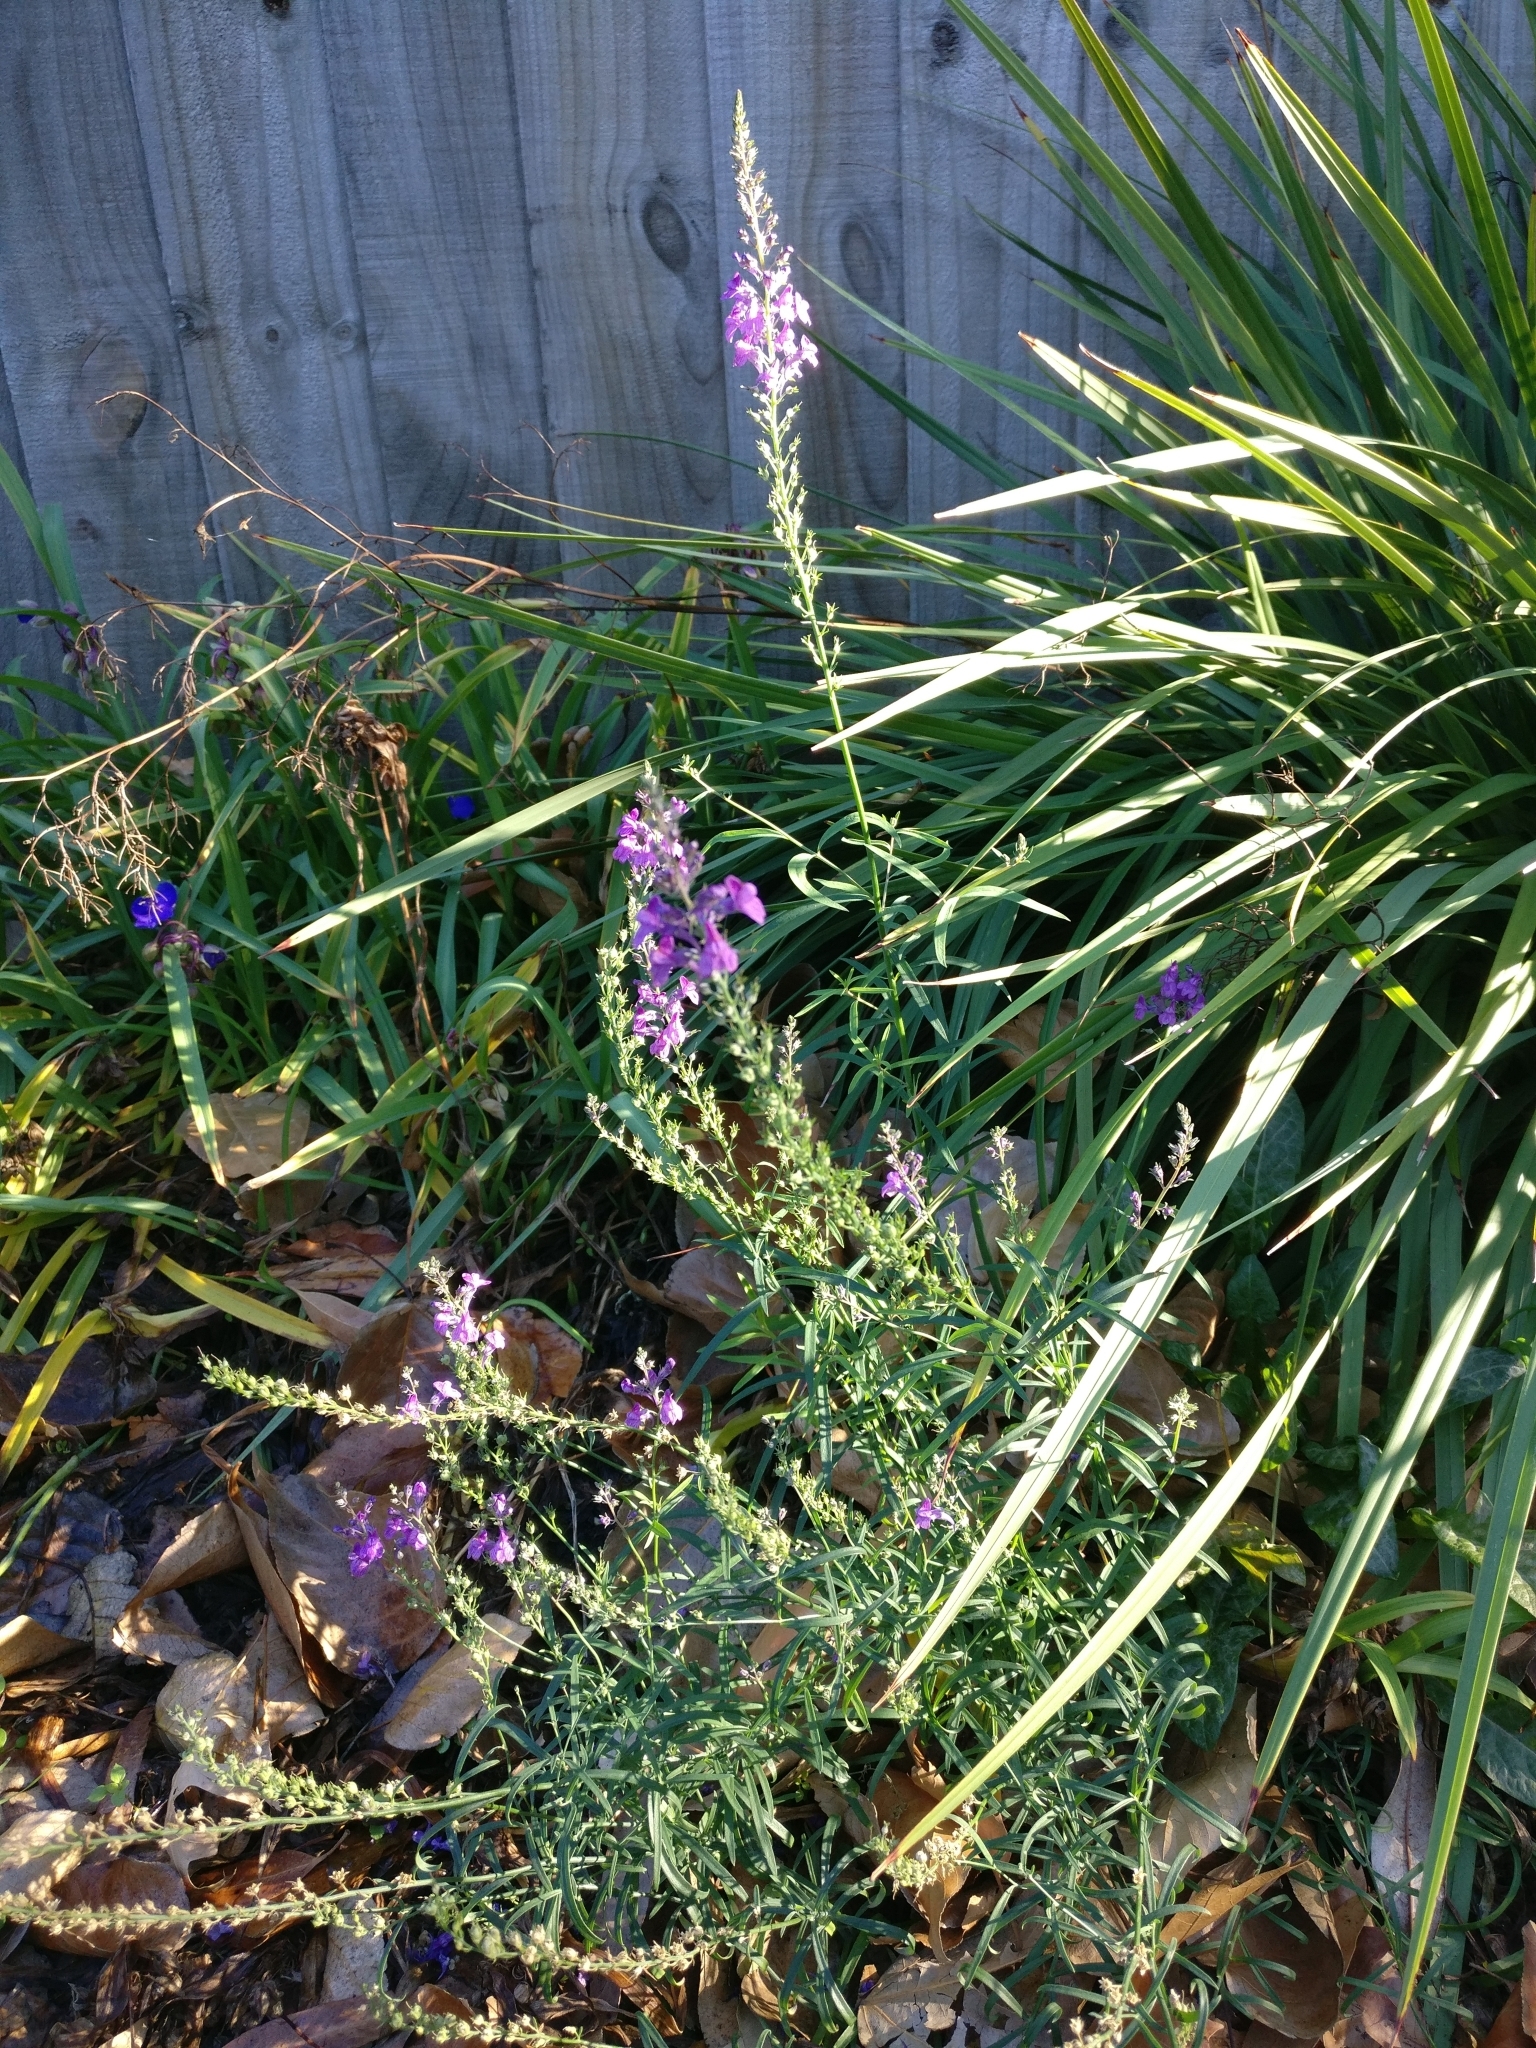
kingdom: Plantae
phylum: Tracheophyta
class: Magnoliopsida
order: Lamiales
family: Plantaginaceae
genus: Linaria
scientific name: Linaria purpurea
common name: Purple toadflax
